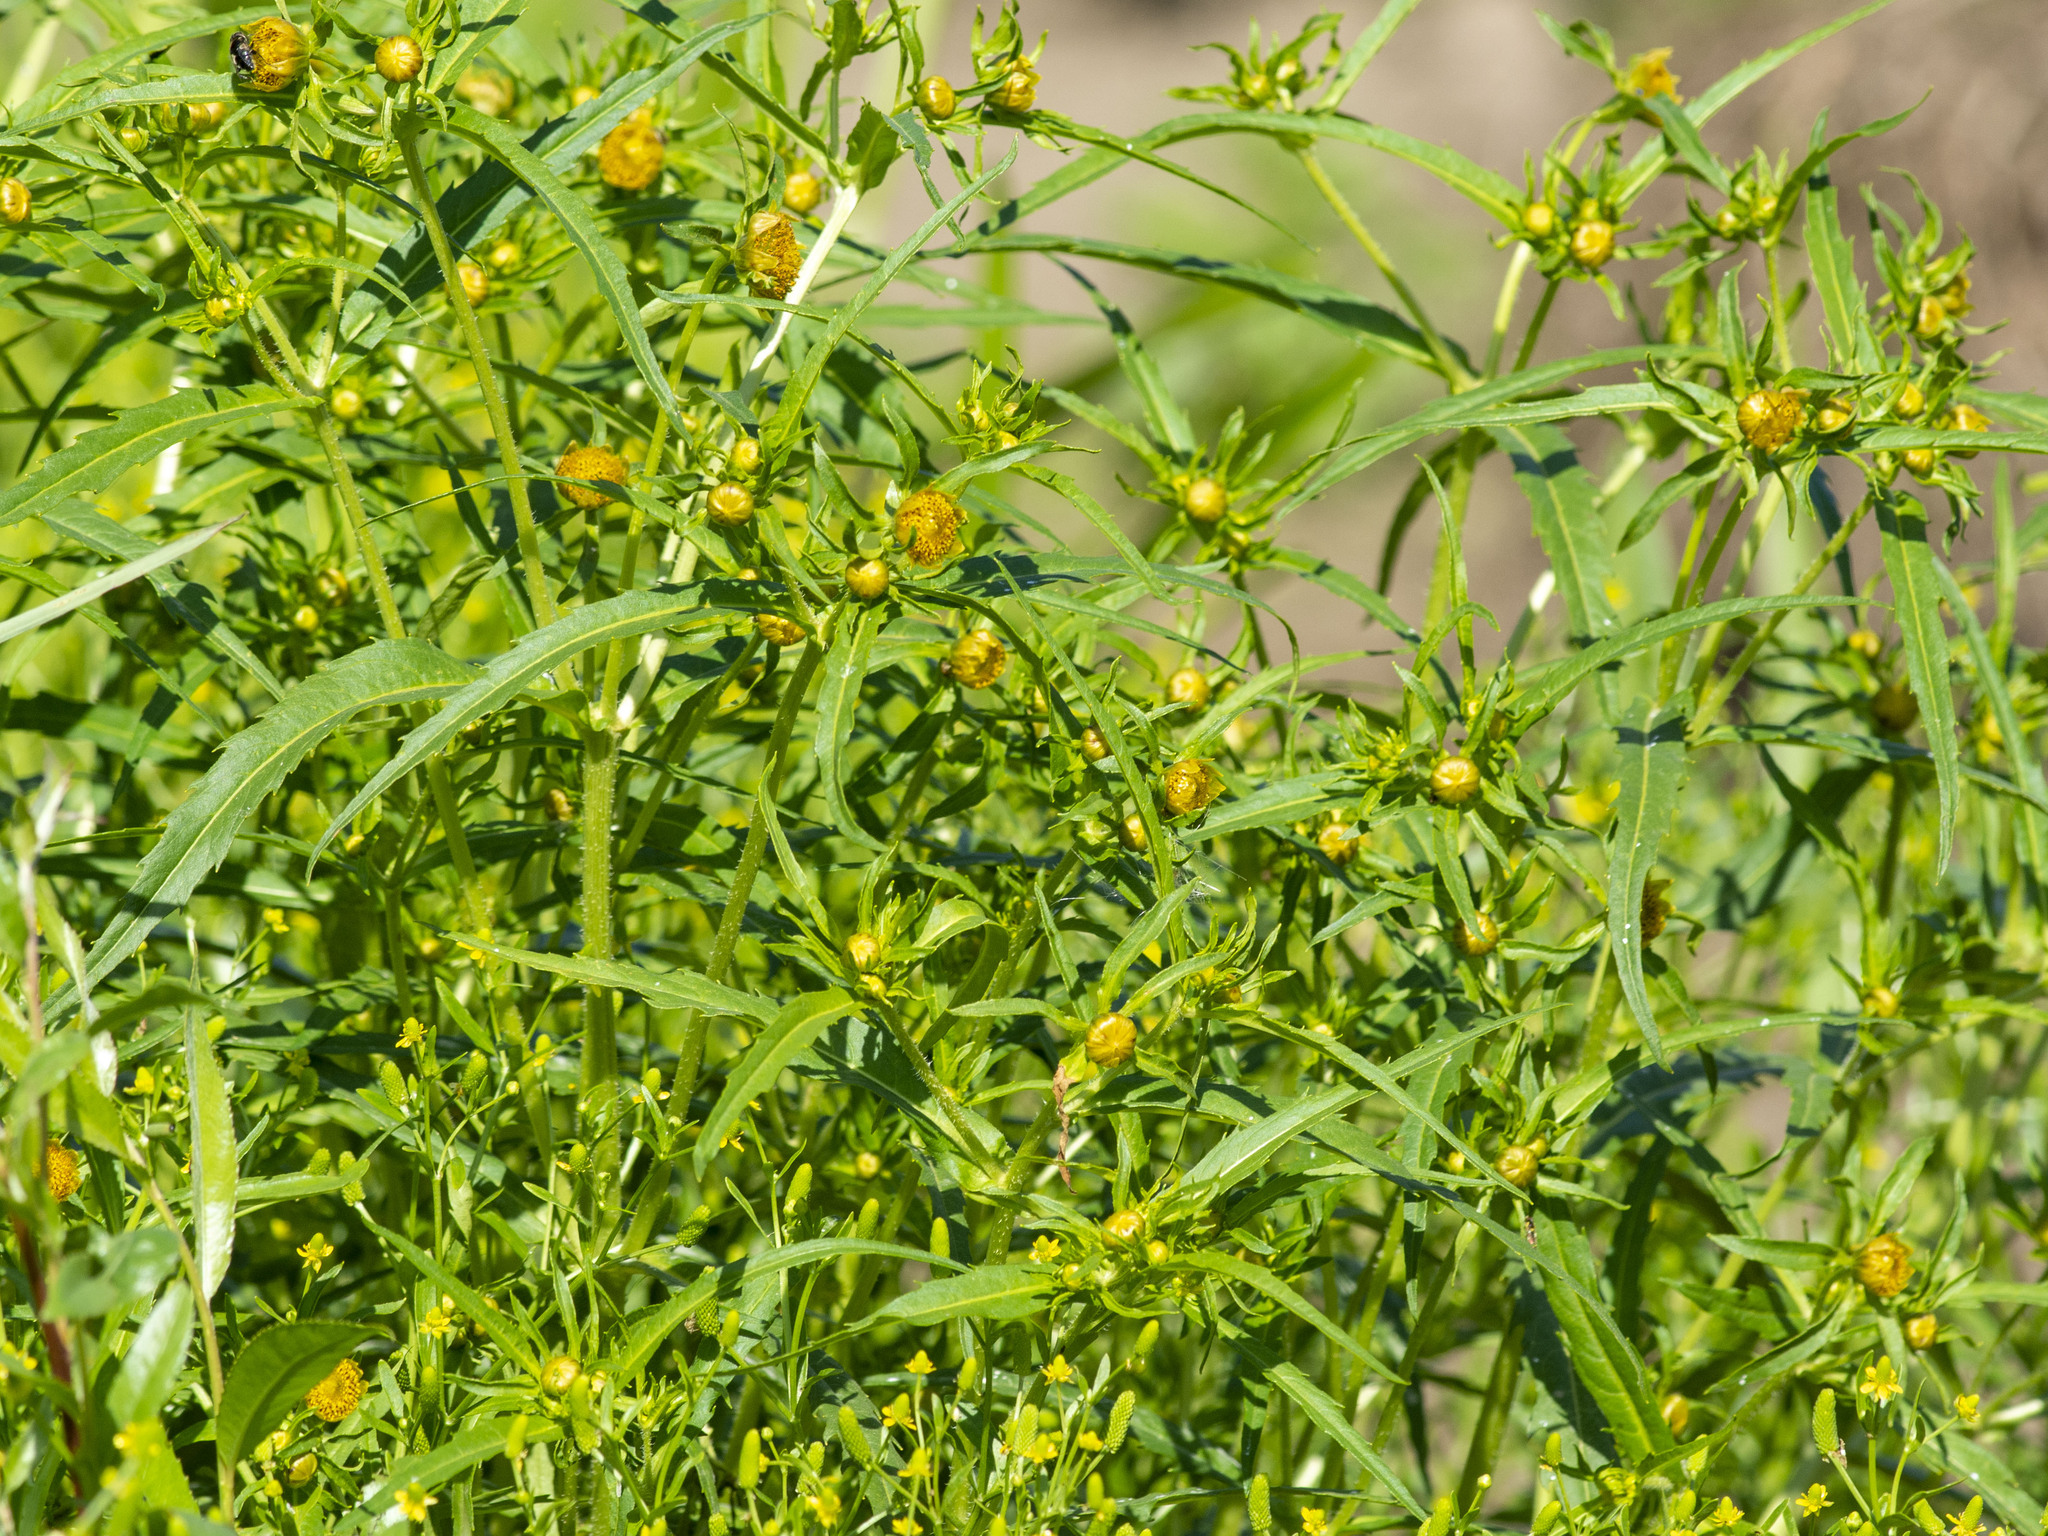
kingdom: Plantae
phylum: Tracheophyta
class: Magnoliopsida
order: Asterales
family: Asteraceae
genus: Bidens
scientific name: Bidens cernua
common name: Nodding bur-marigold
